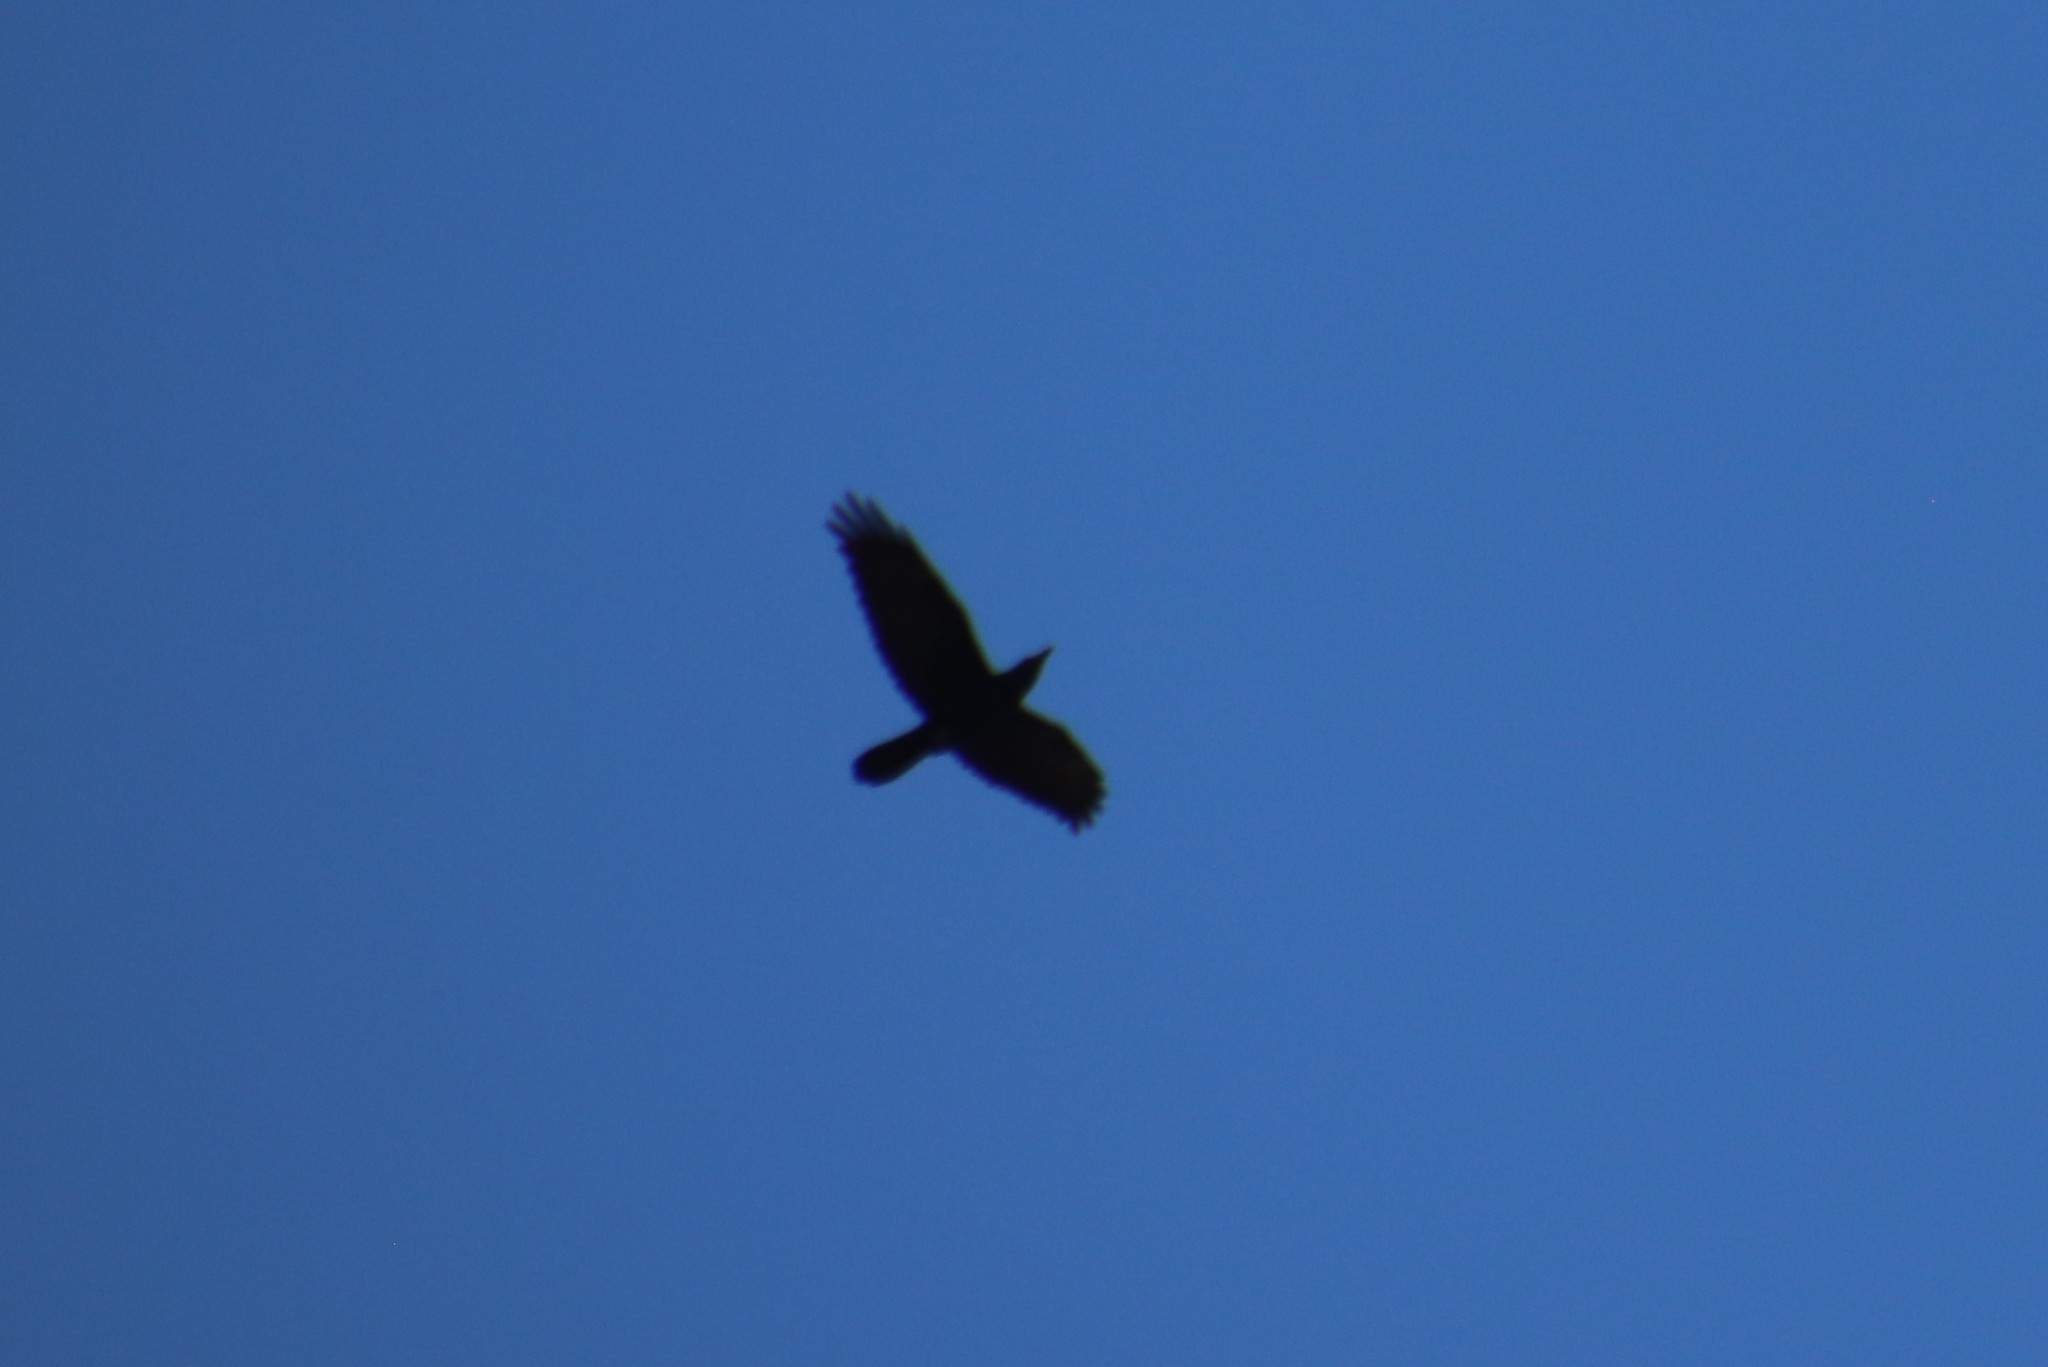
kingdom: Animalia
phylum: Chordata
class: Aves
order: Passeriformes
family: Corvidae
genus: Corvus
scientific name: Corvus corax
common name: Common raven
